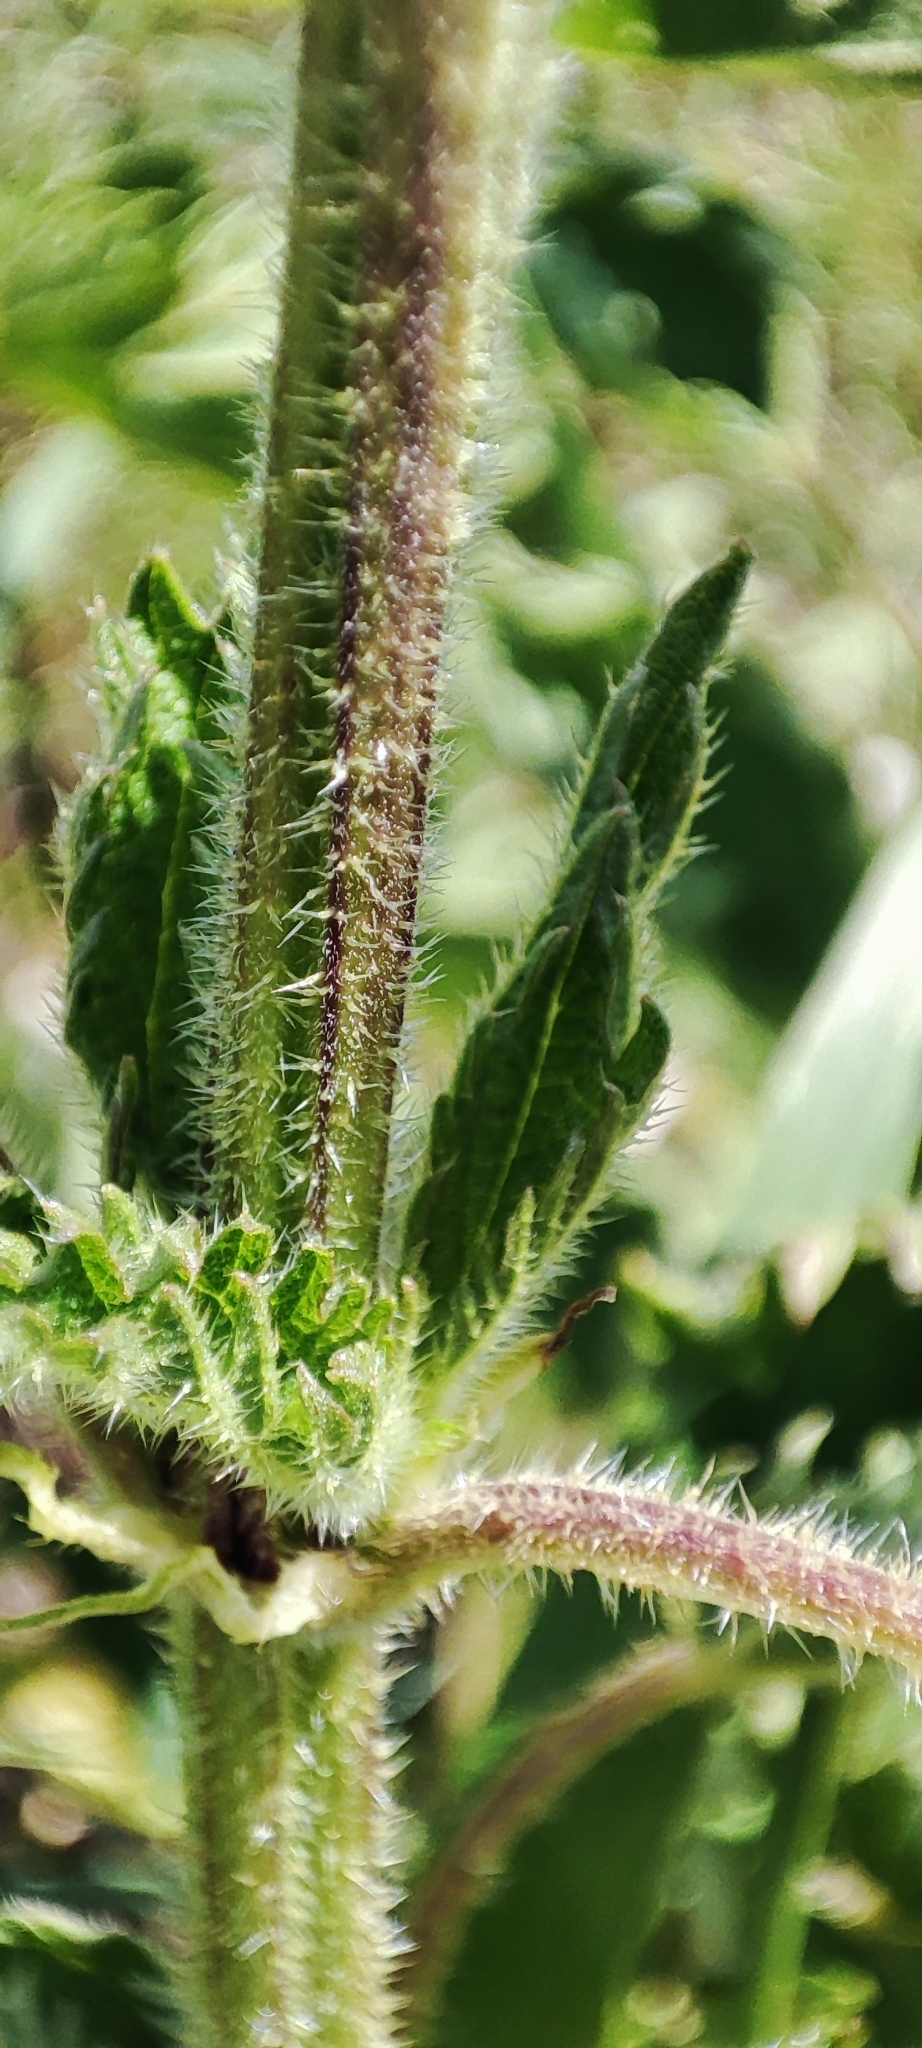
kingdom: Plantae
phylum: Tracheophyta
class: Magnoliopsida
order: Rosales
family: Urticaceae
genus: Urtica
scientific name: Urtica dioica
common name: Common nettle
